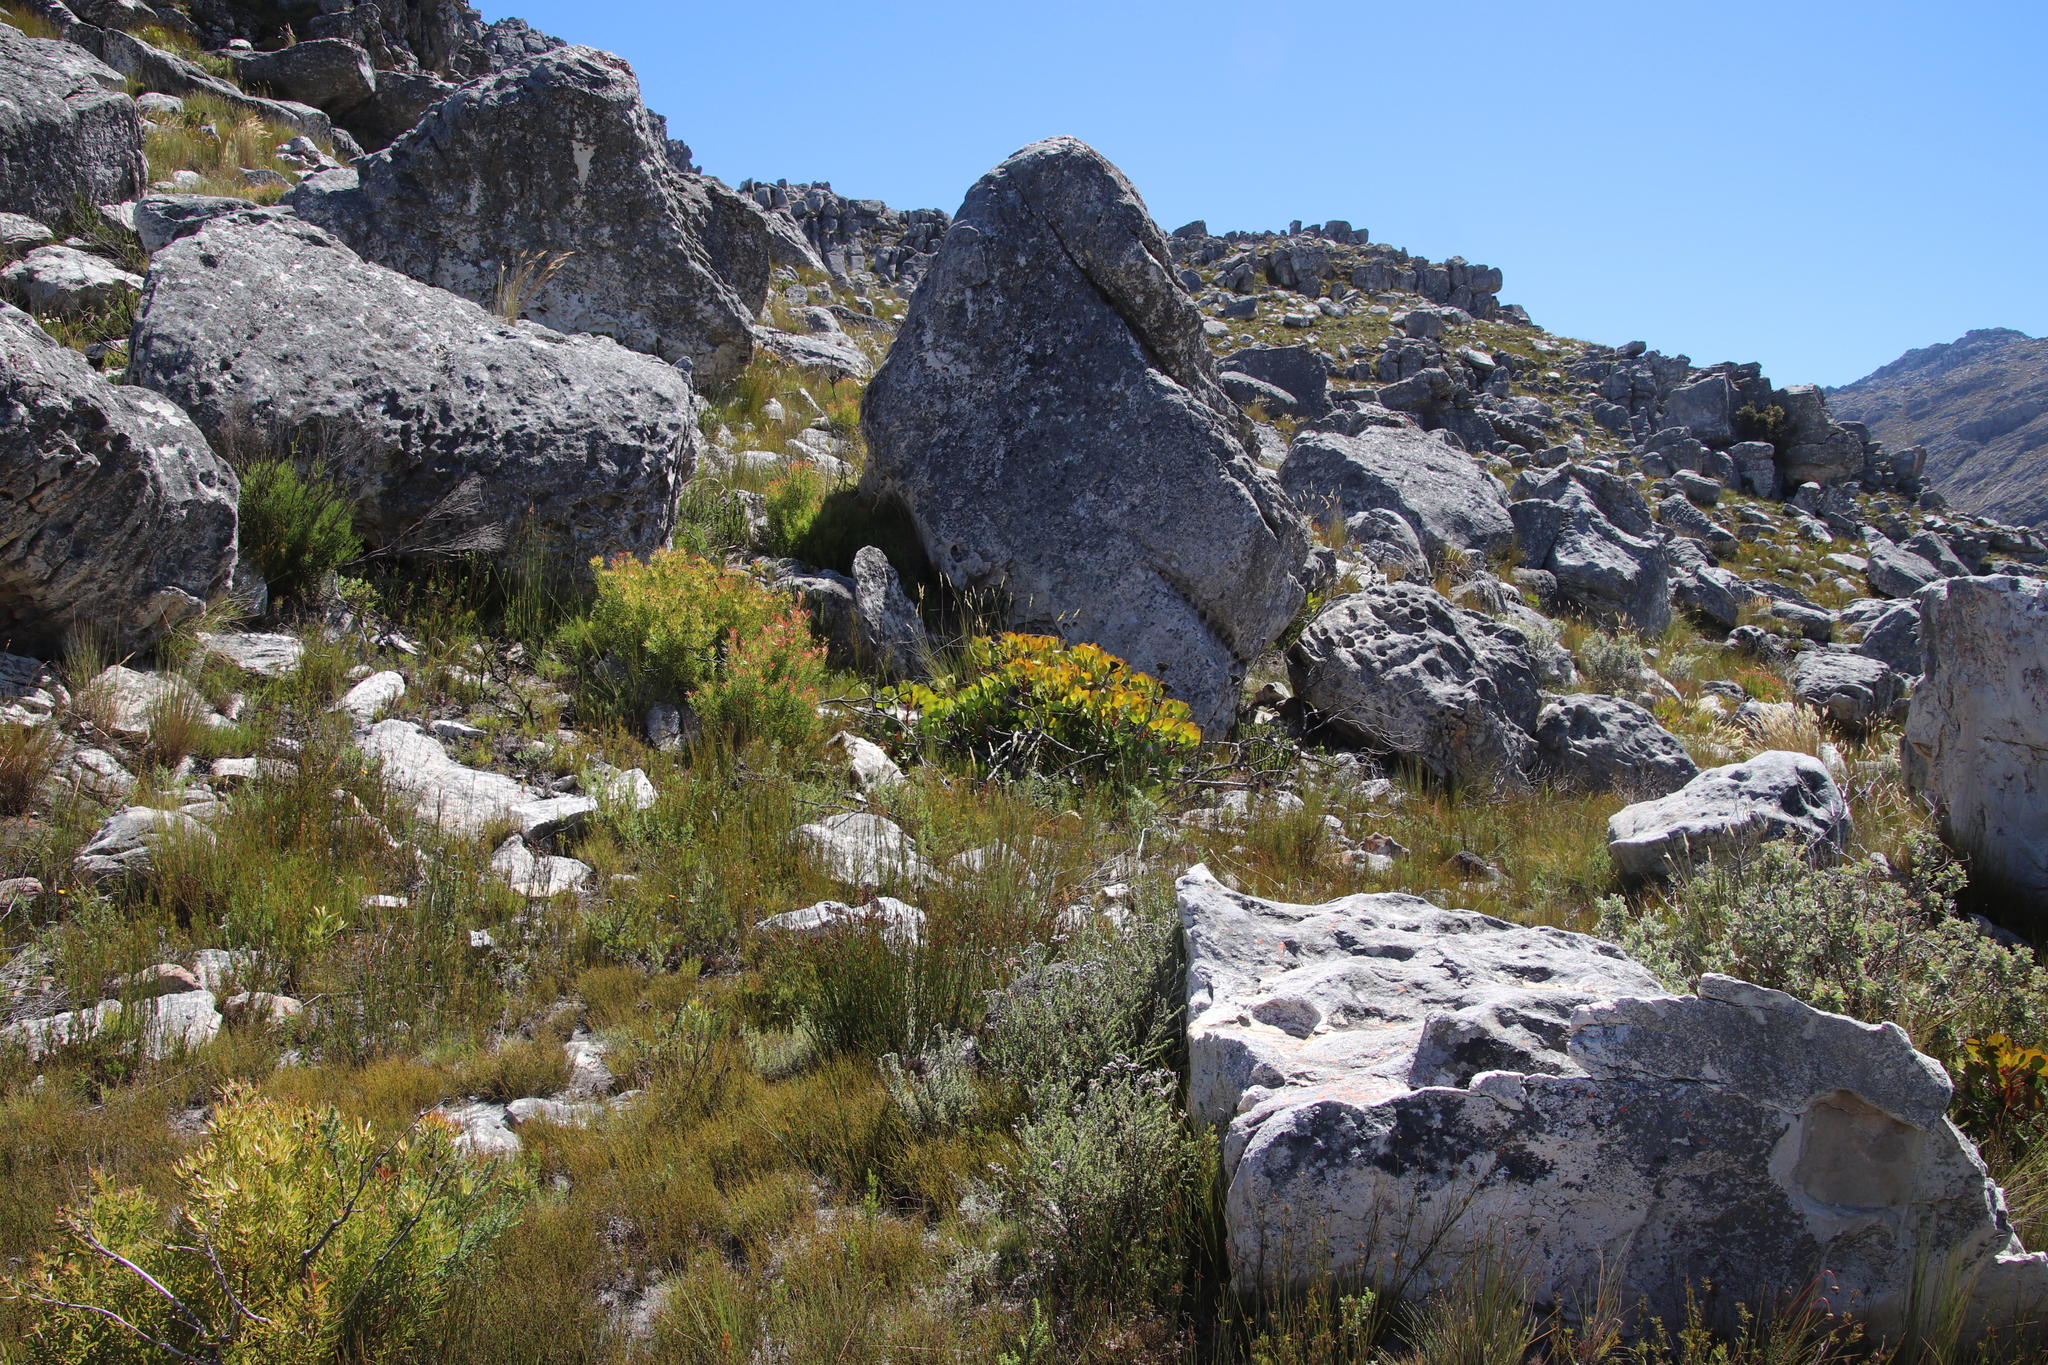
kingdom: Plantae
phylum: Tracheophyta
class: Magnoliopsida
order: Proteales
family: Proteaceae
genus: Protea
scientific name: Protea cynaroides
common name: King protea
